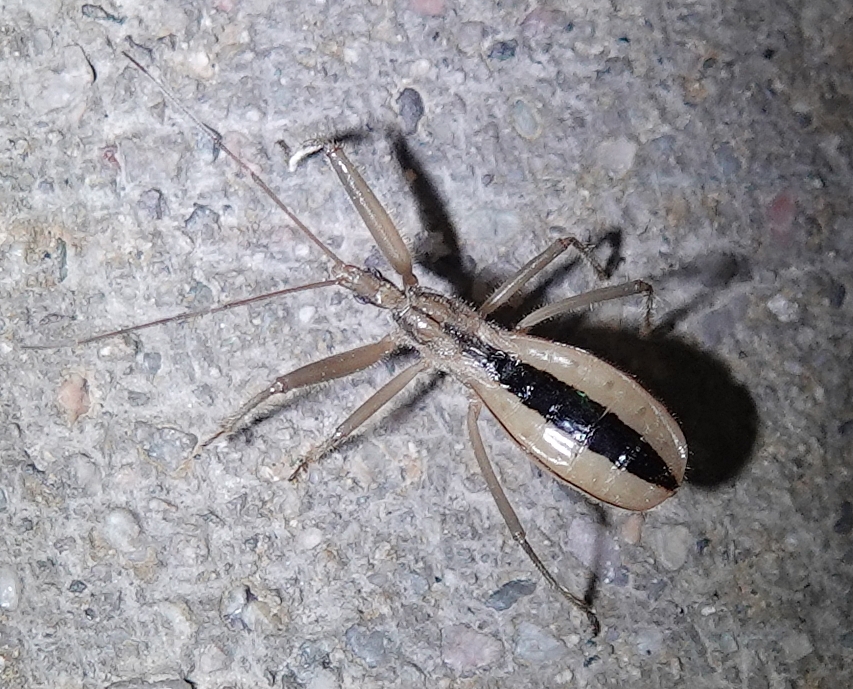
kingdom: Animalia
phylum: Arthropoda
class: Insecta
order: Hemiptera
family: Reduviidae
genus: Fitchia
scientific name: Fitchia aptera
